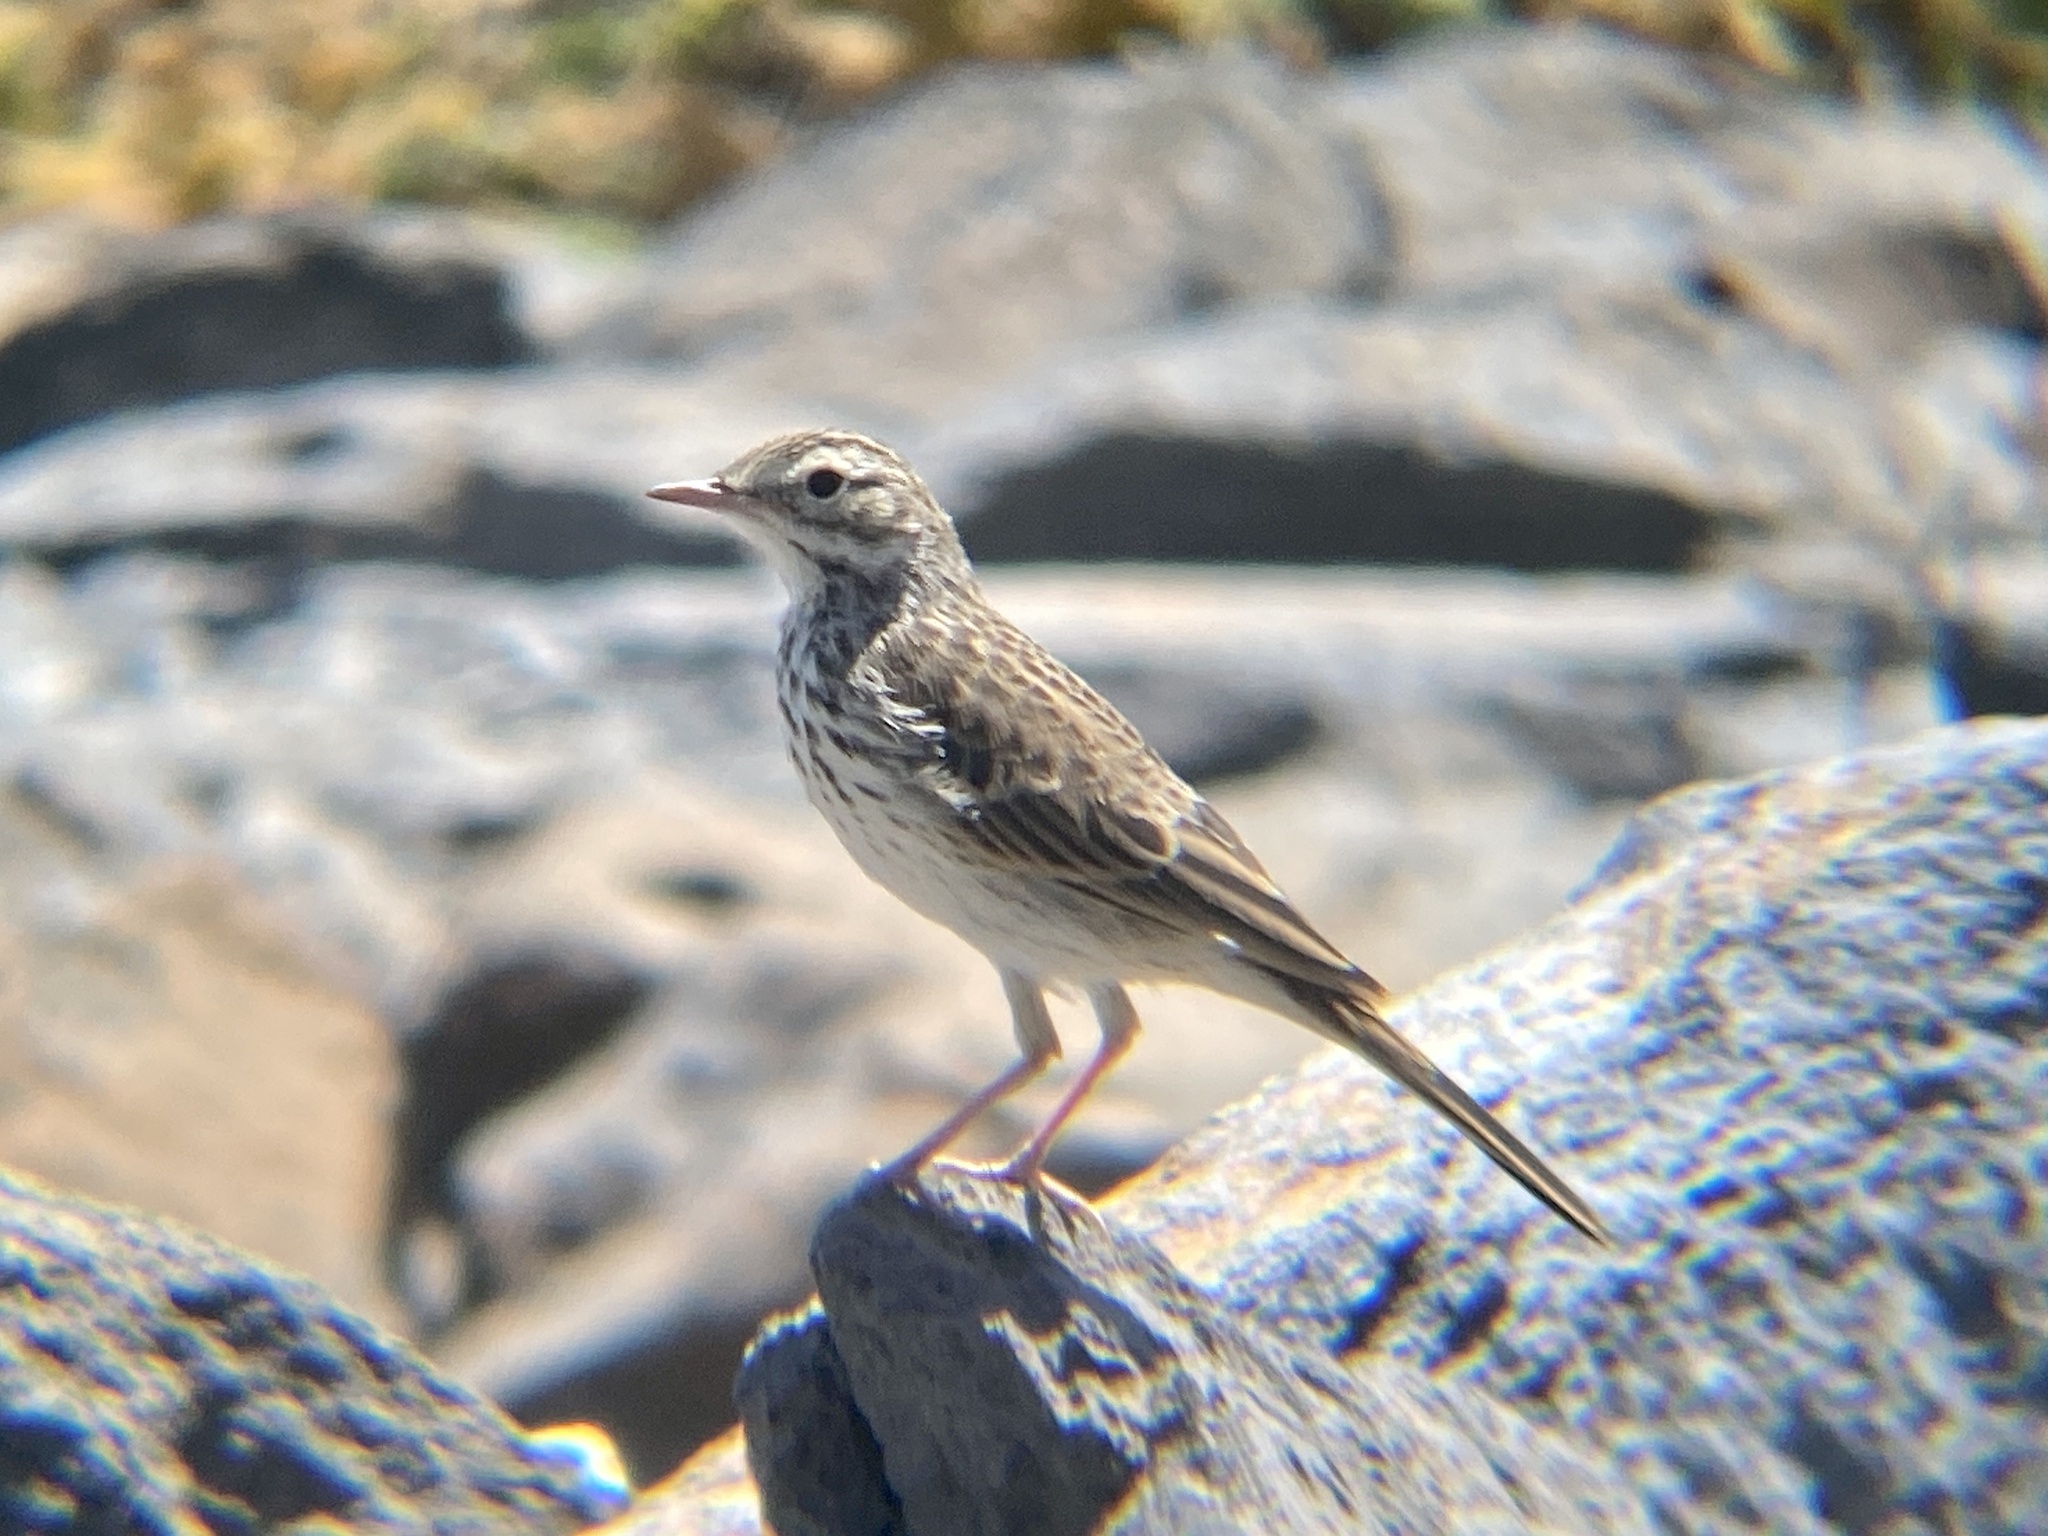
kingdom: Animalia
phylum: Chordata
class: Aves
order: Passeriformes
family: Motacillidae
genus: Anthus
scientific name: Anthus berthelotii
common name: Berthelot's pipit
